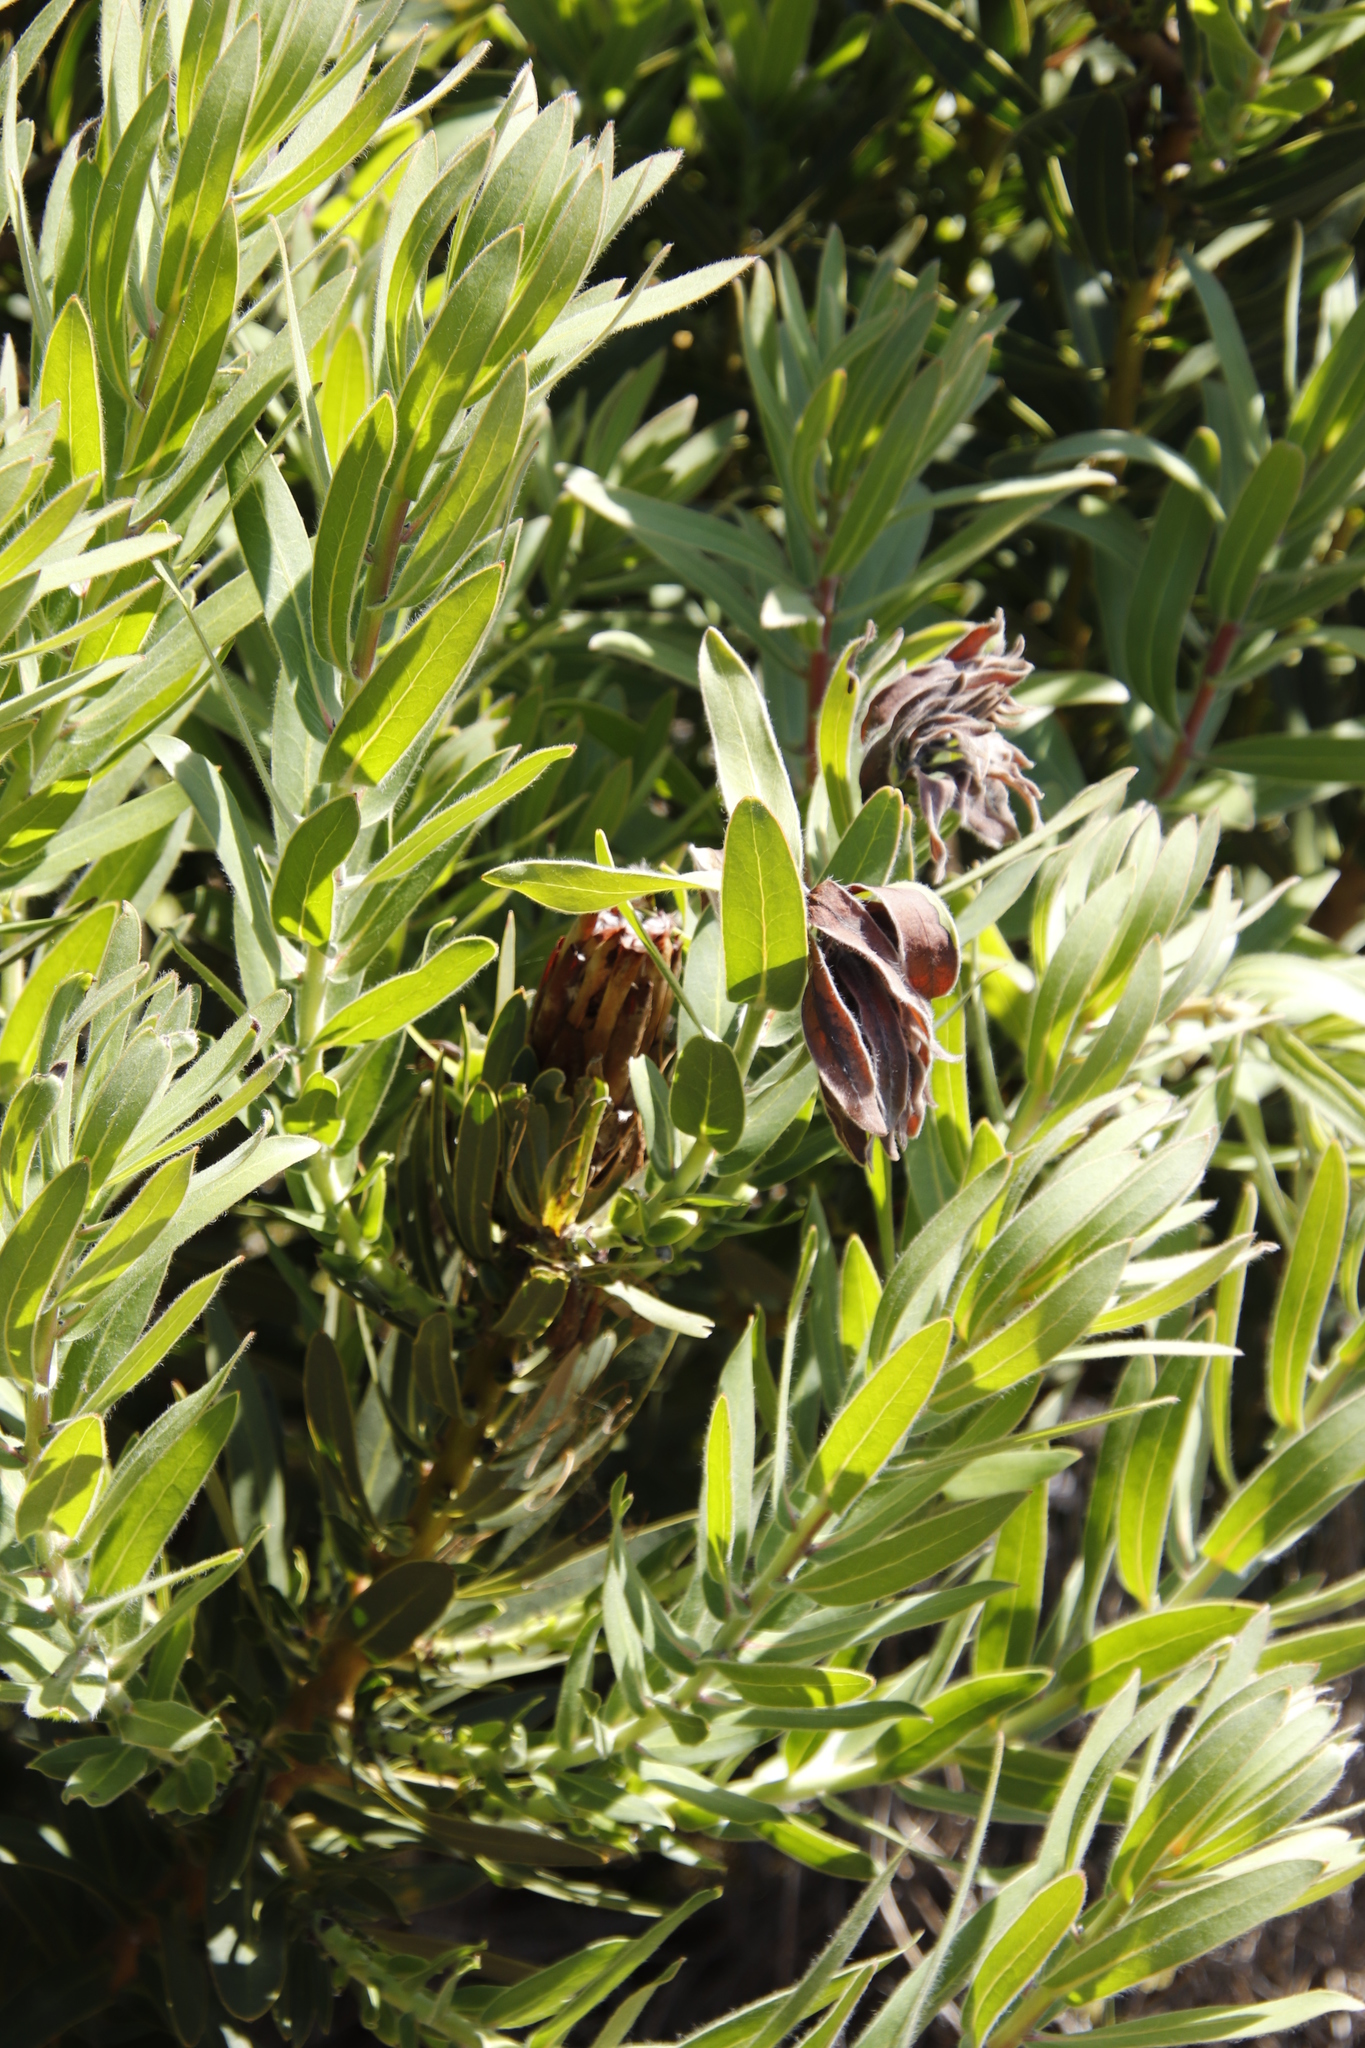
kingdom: Plantae
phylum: Tracheophyta
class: Magnoliopsida
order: Proteales
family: Proteaceae
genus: Protea
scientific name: Protea lepidocarpodendron
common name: Black-bearded protea
